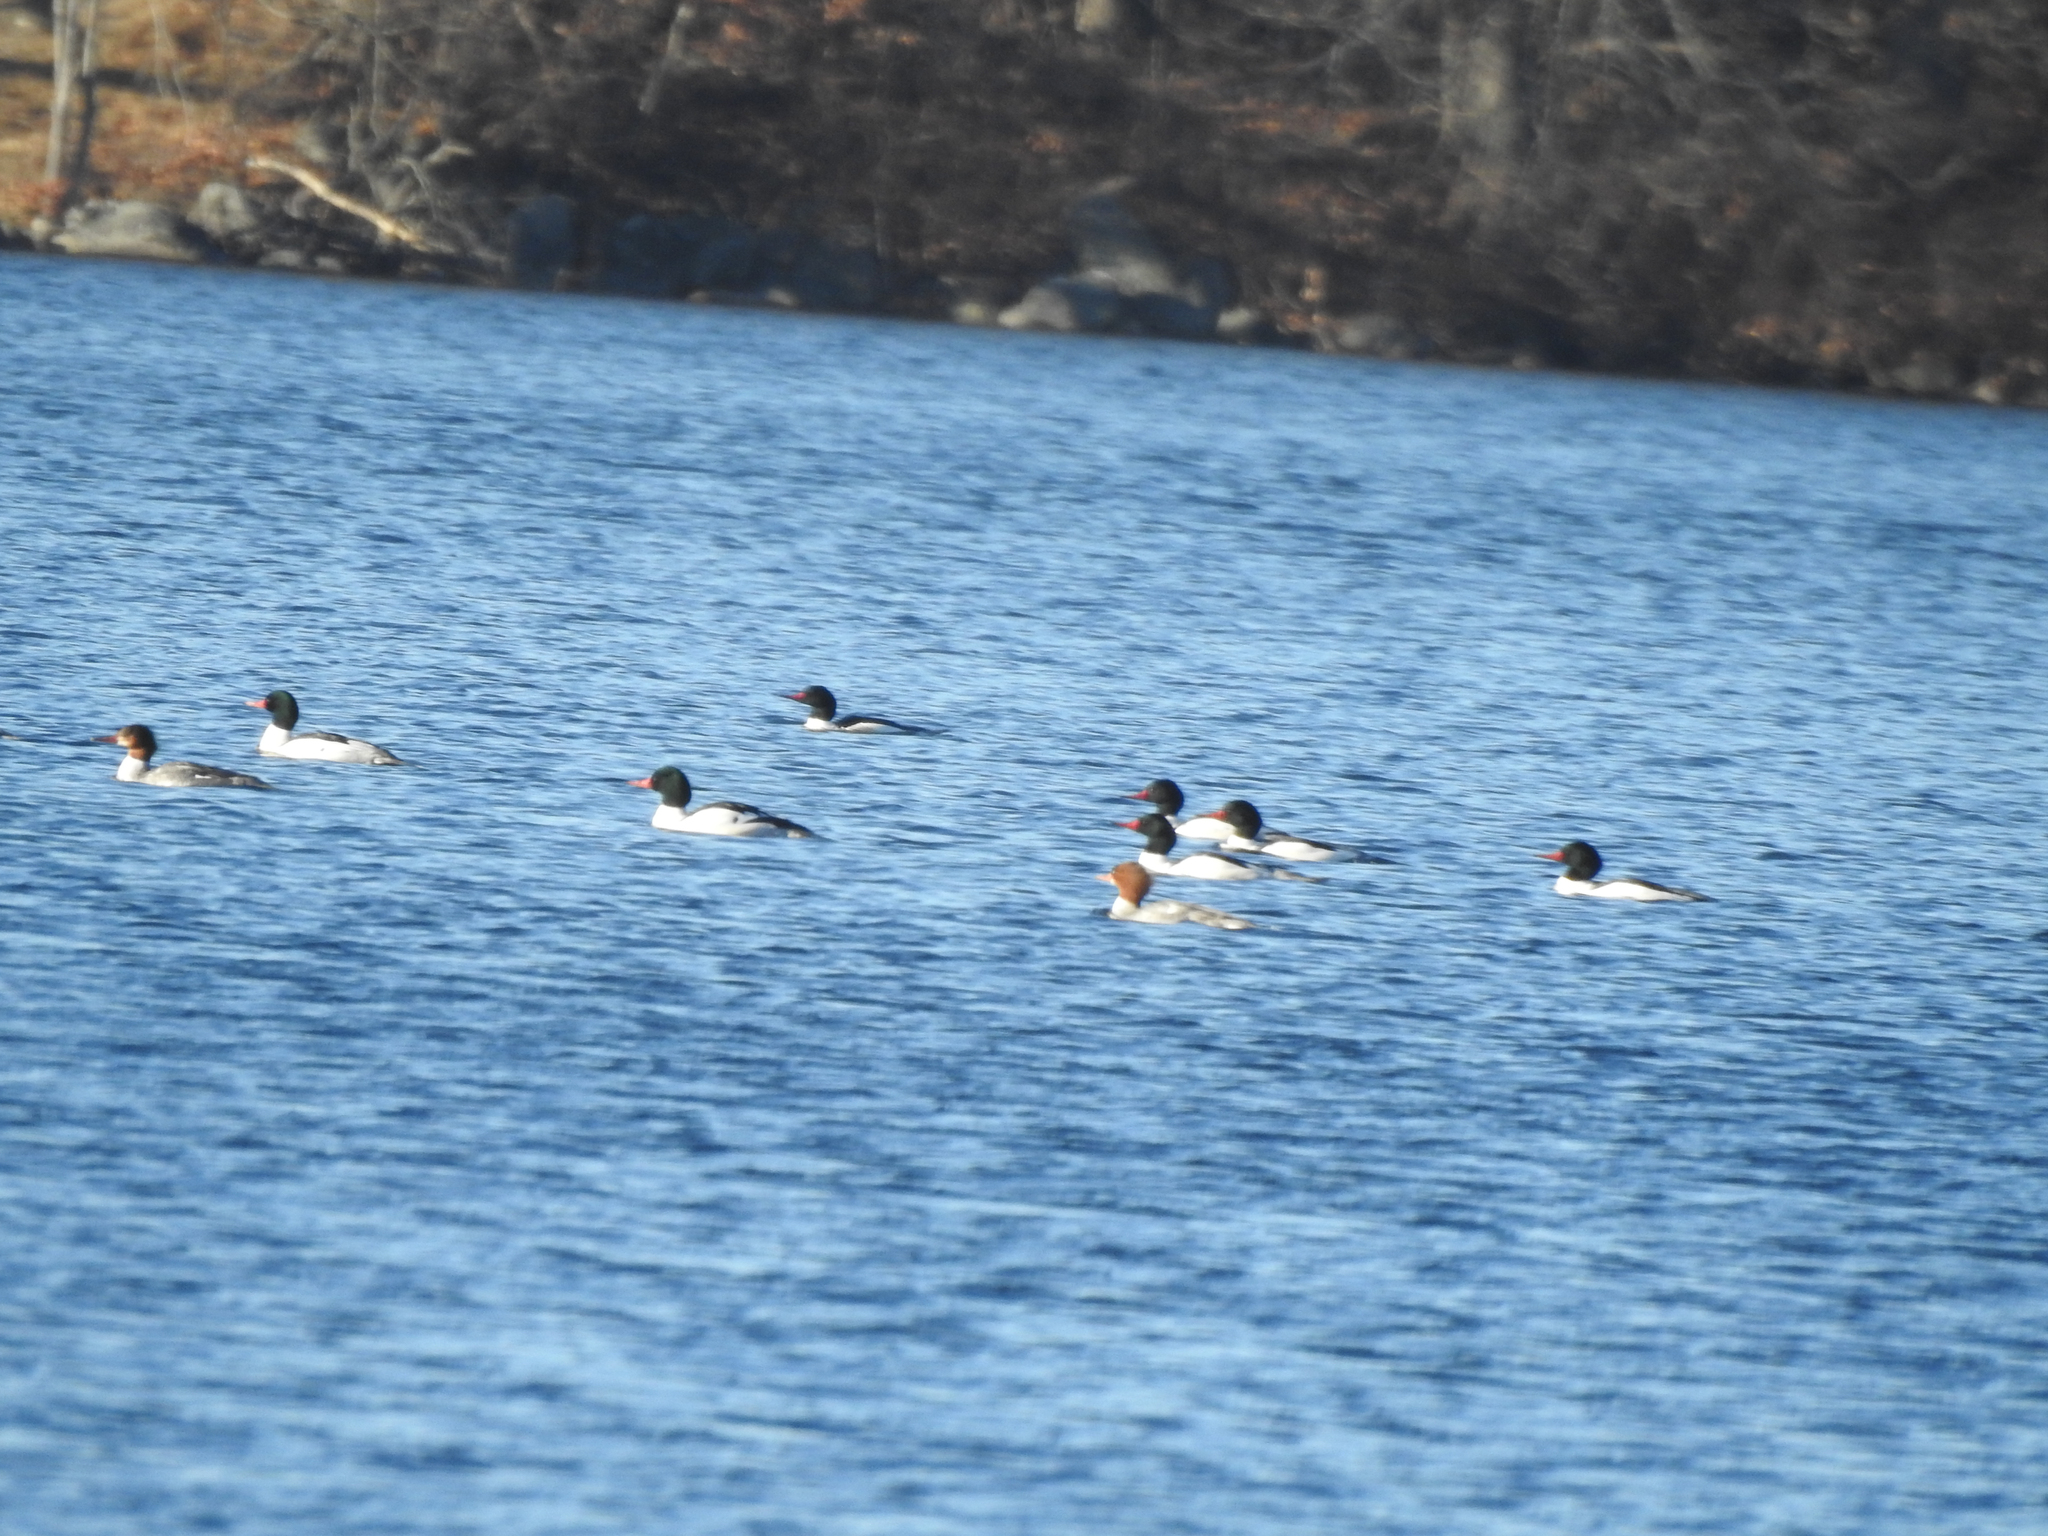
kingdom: Animalia
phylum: Chordata
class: Aves
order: Anseriformes
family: Anatidae
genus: Mergus
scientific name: Mergus merganser
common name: Common merganser
